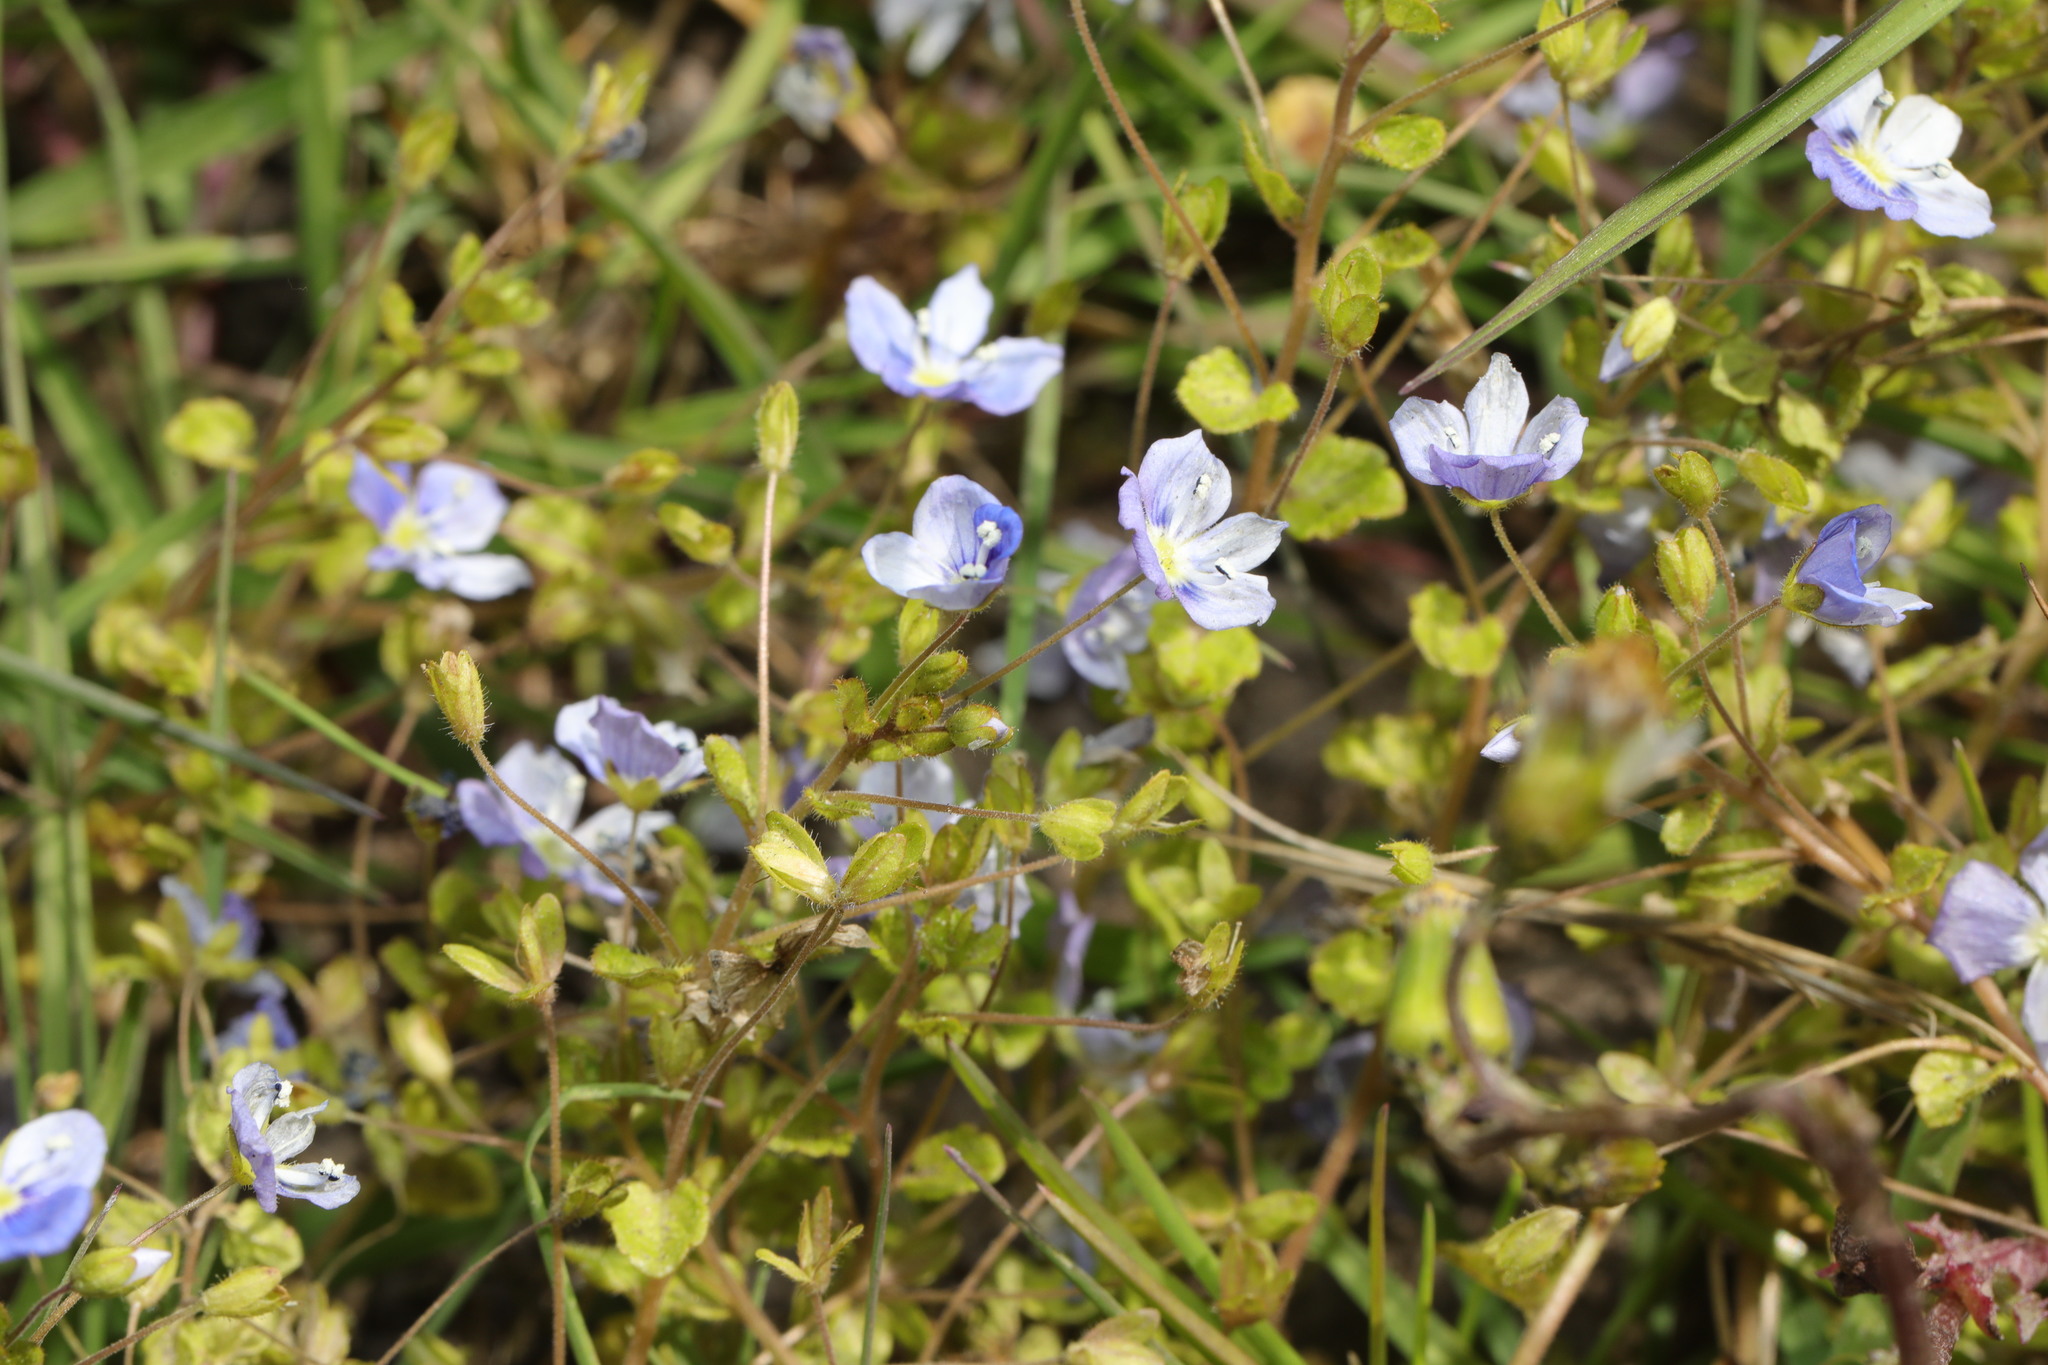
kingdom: Plantae
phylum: Tracheophyta
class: Magnoliopsida
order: Lamiales
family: Plantaginaceae
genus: Veronica
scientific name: Veronica filiformis
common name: Slender speedwell
